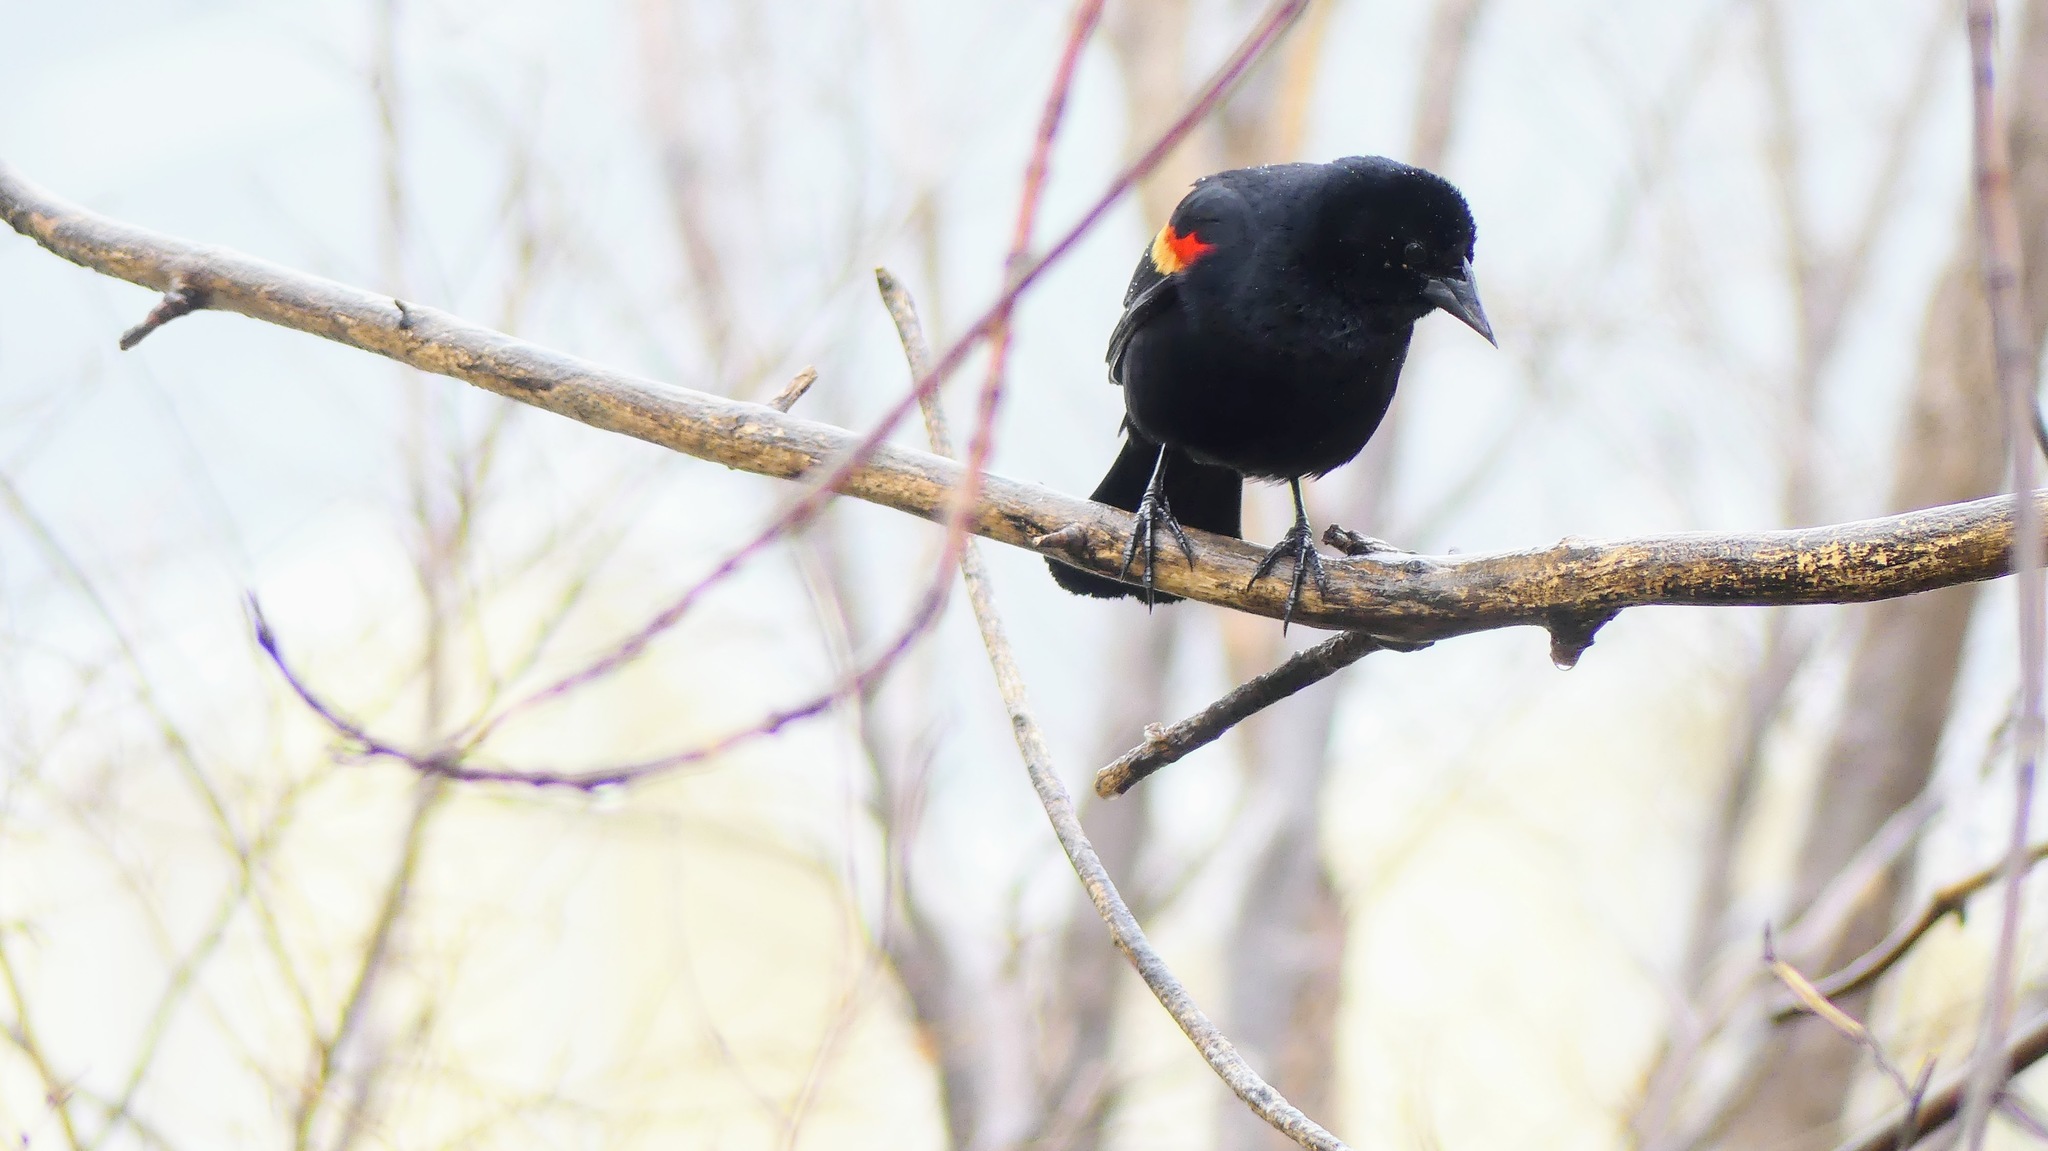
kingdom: Animalia
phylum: Chordata
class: Aves
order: Passeriformes
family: Icteridae
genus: Agelaius
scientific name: Agelaius phoeniceus
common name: Red-winged blackbird
